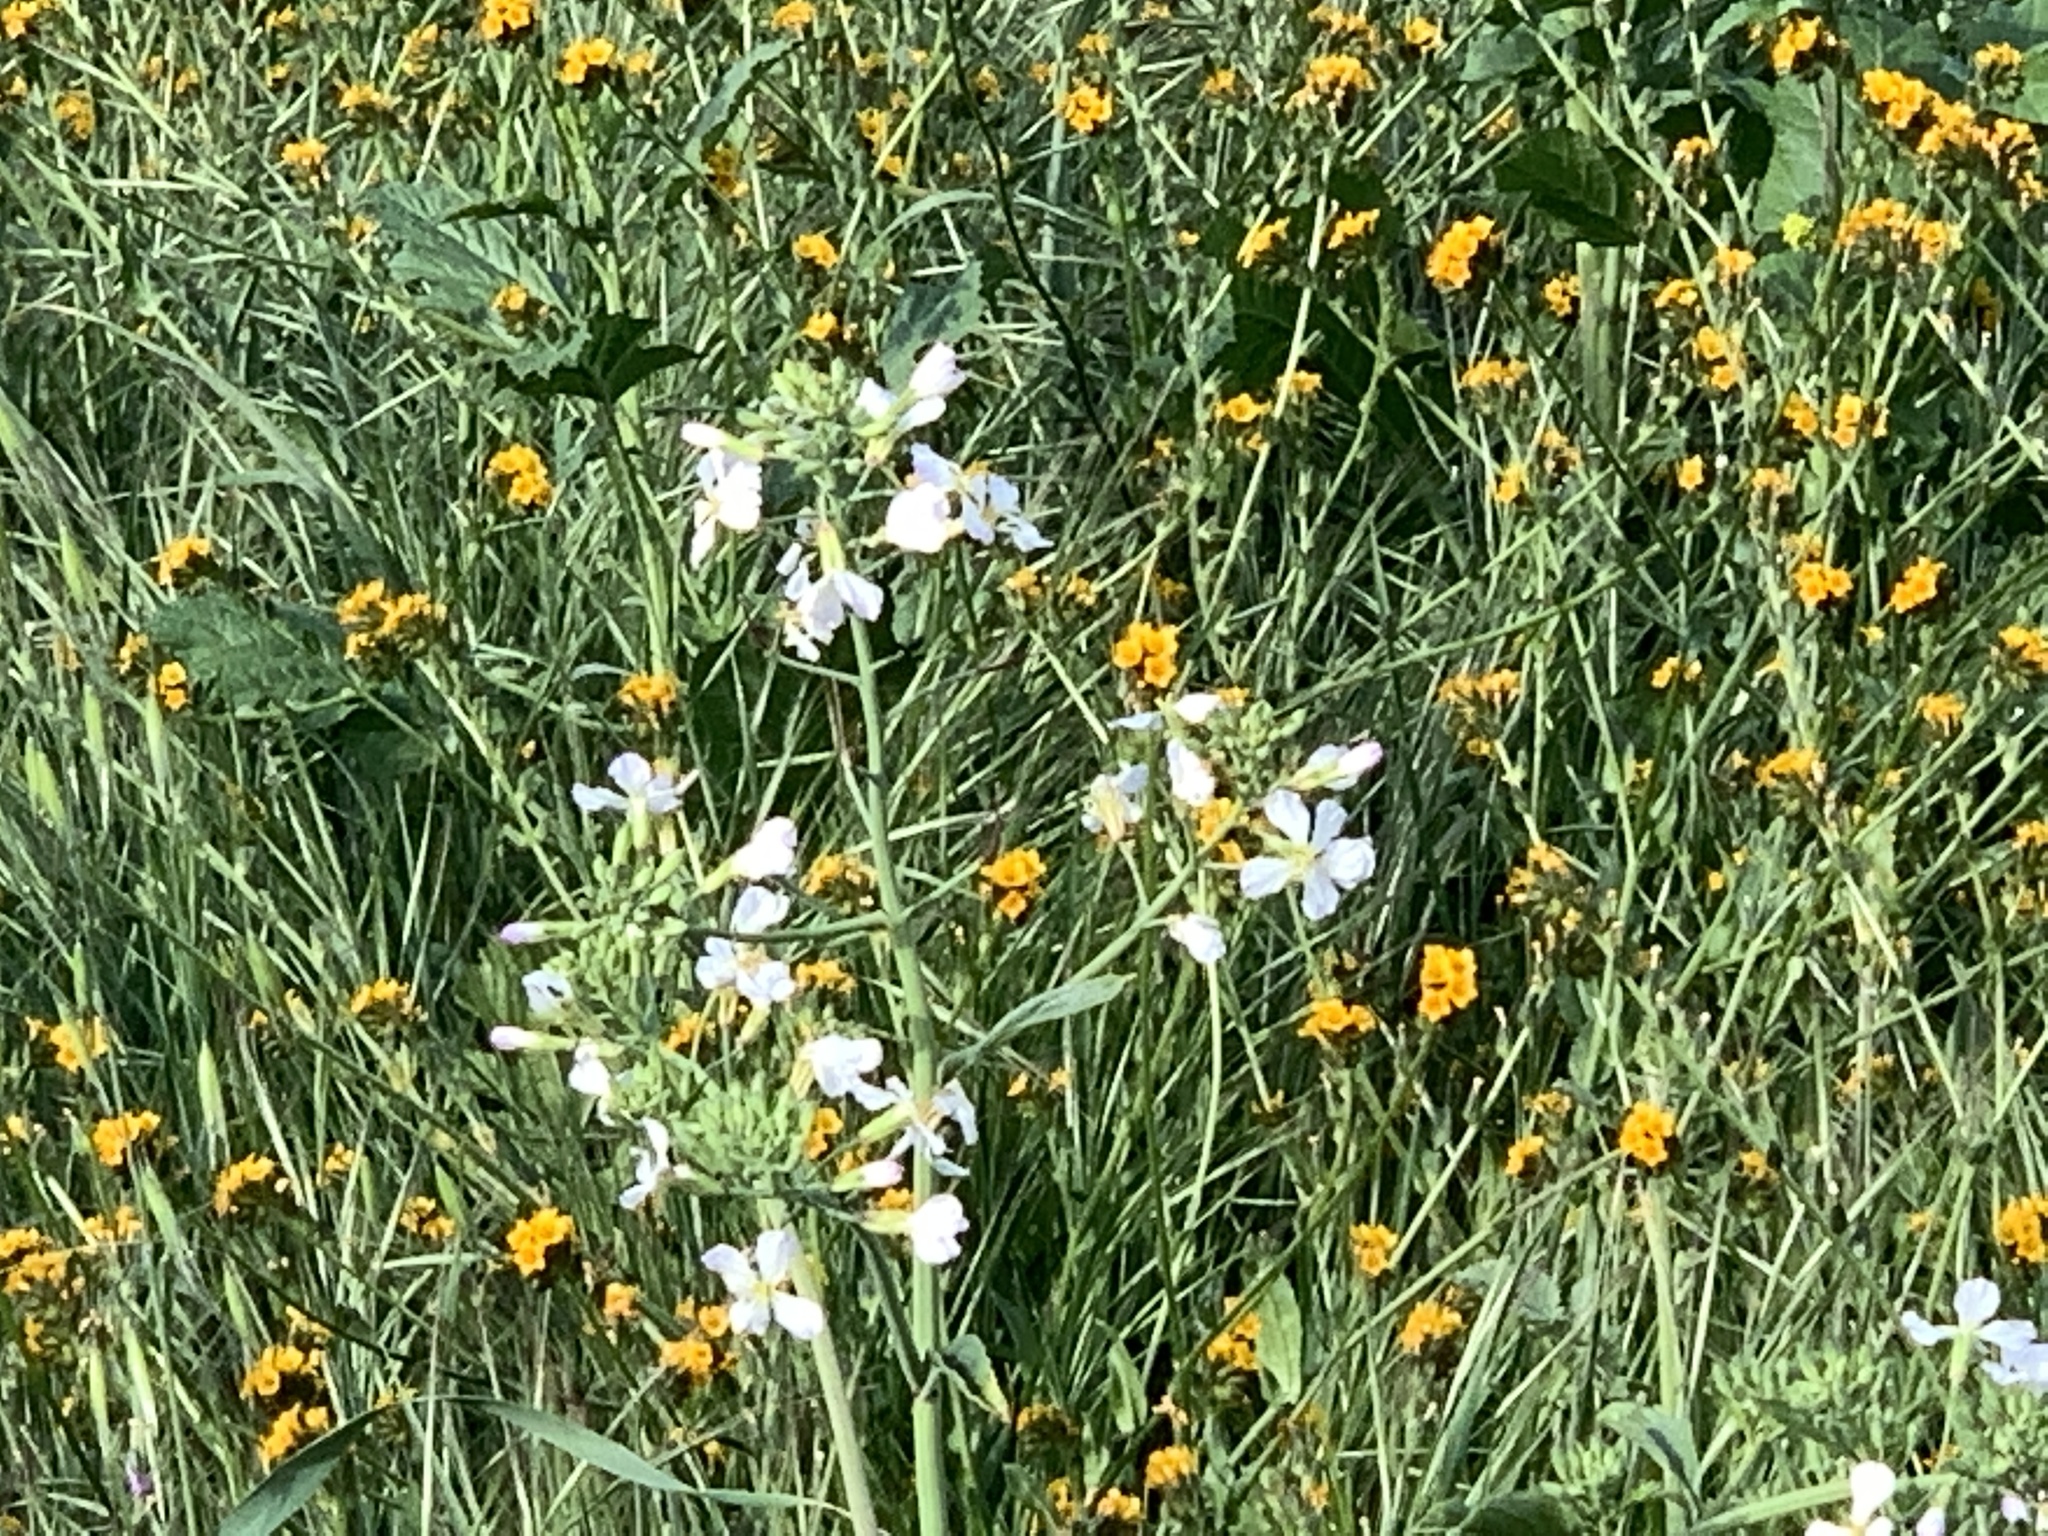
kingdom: Plantae
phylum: Tracheophyta
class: Magnoliopsida
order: Brassicales
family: Brassicaceae
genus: Raphanus
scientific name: Raphanus sativus
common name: Cultivated radish
